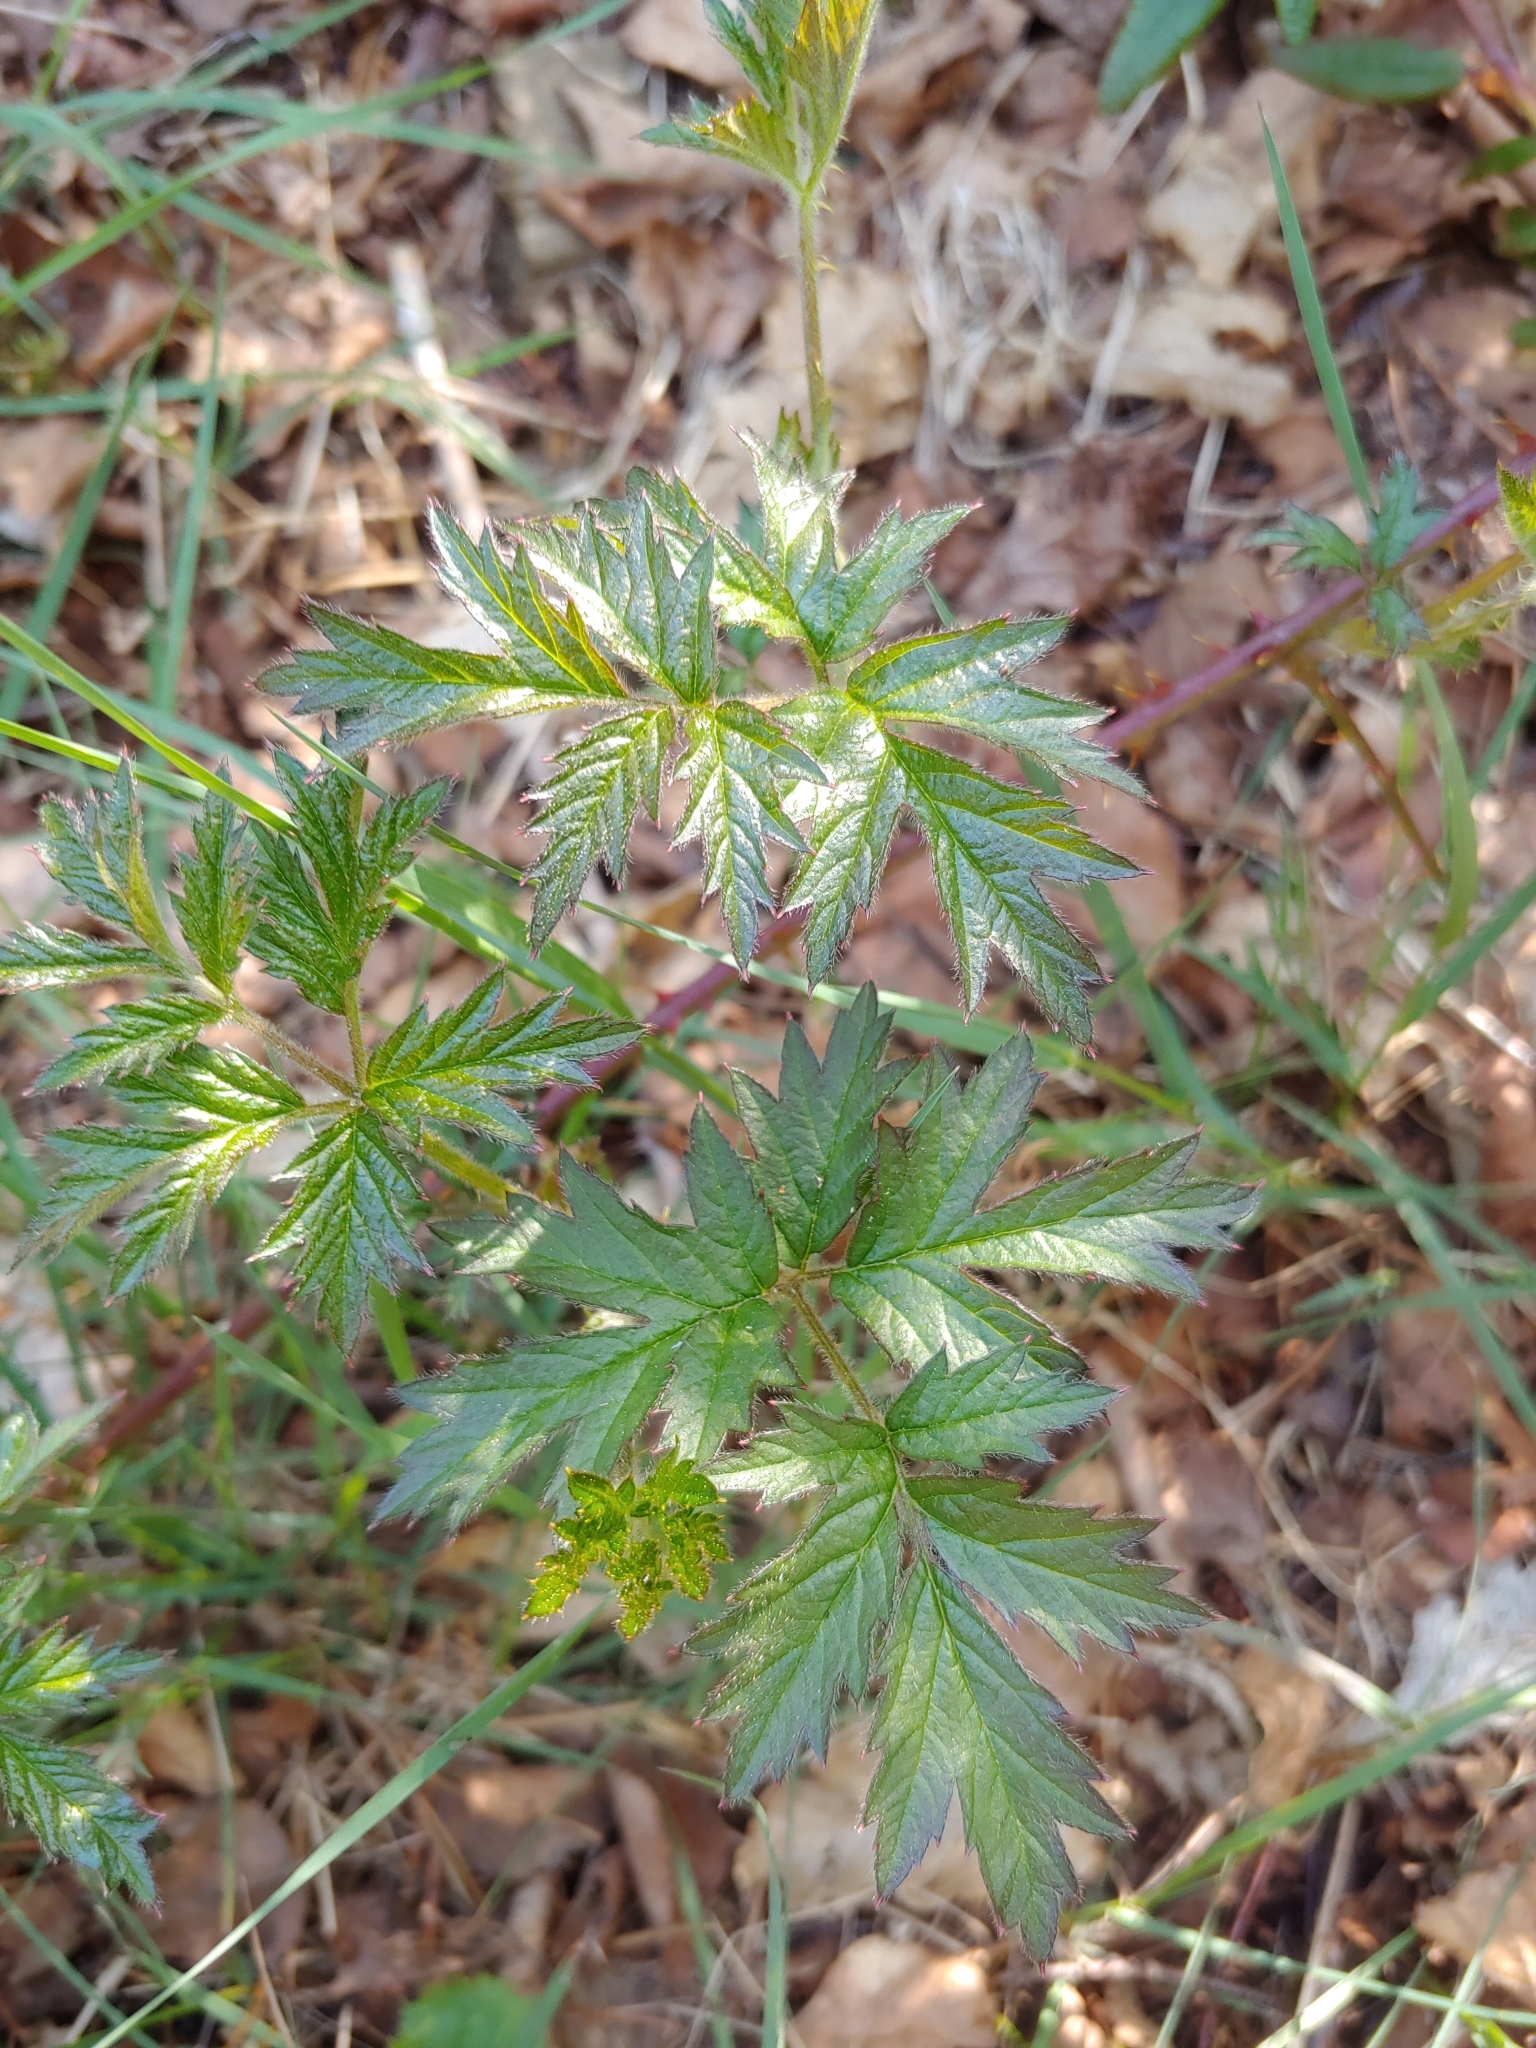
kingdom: Plantae
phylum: Tracheophyta
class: Magnoliopsida
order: Rosales
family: Rosaceae
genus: Rubus
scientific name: Rubus laciniatus
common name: Evergreen blackberry
